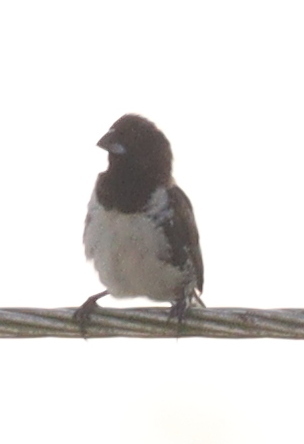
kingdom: Animalia
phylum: Chordata
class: Aves
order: Passeriformes
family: Estrildidae
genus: Lonchura
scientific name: Lonchura cucullata
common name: Bronze mannikin
